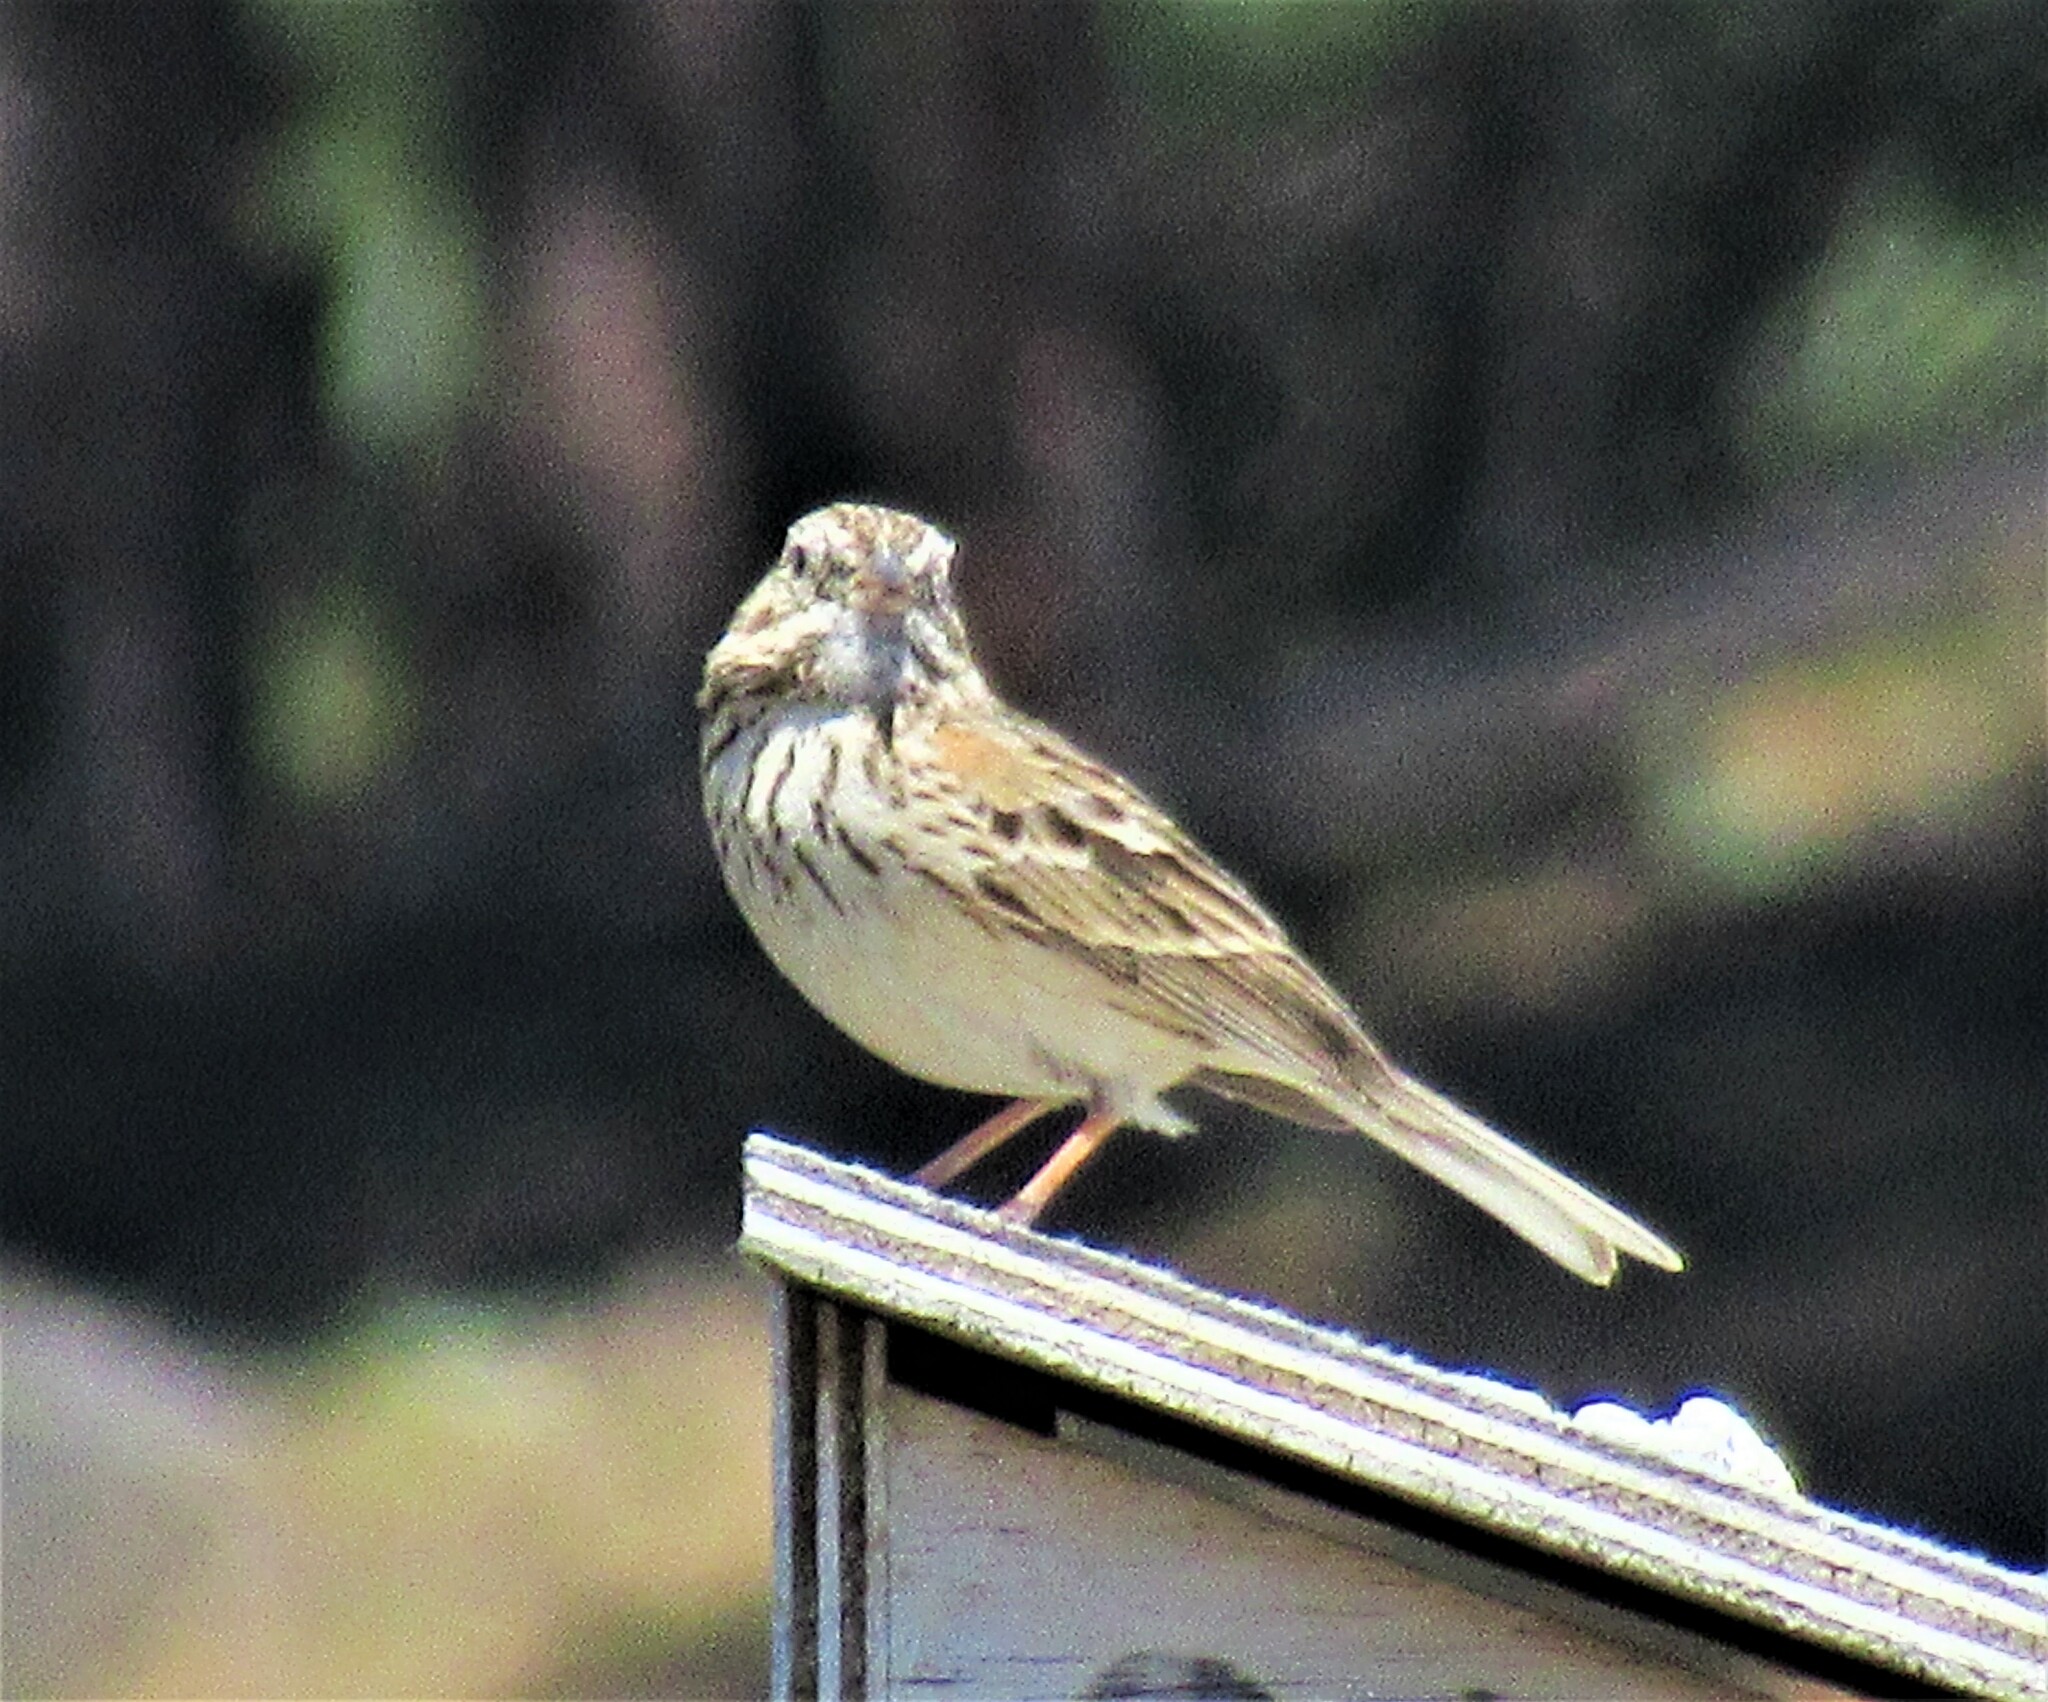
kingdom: Animalia
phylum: Chordata
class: Aves
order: Passeriformes
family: Passerellidae
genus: Pooecetes
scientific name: Pooecetes gramineus
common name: Vesper sparrow
